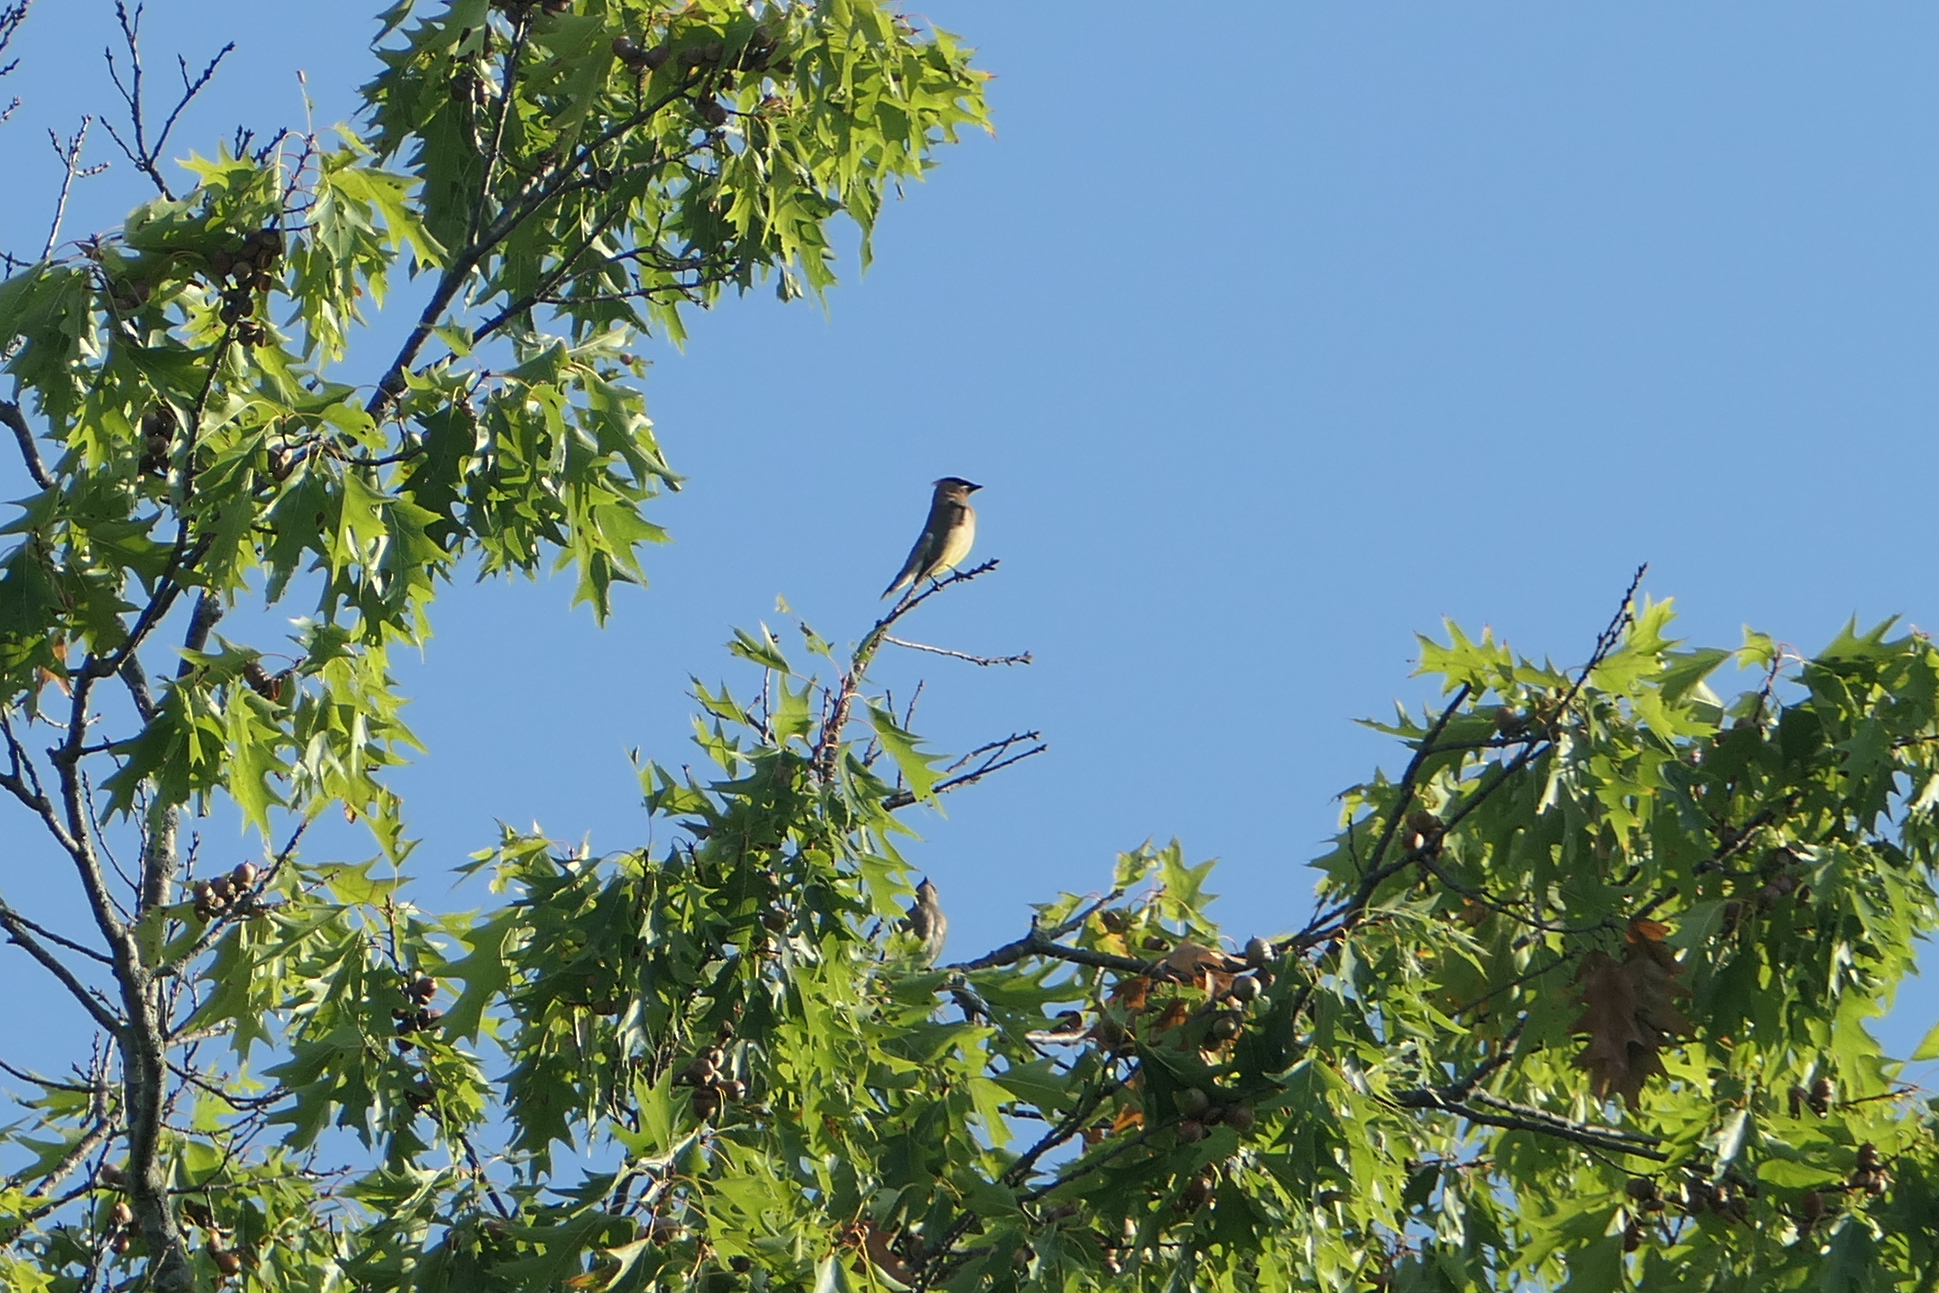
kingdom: Animalia
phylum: Chordata
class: Aves
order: Passeriformes
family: Bombycillidae
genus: Bombycilla
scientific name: Bombycilla cedrorum
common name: Cedar waxwing
